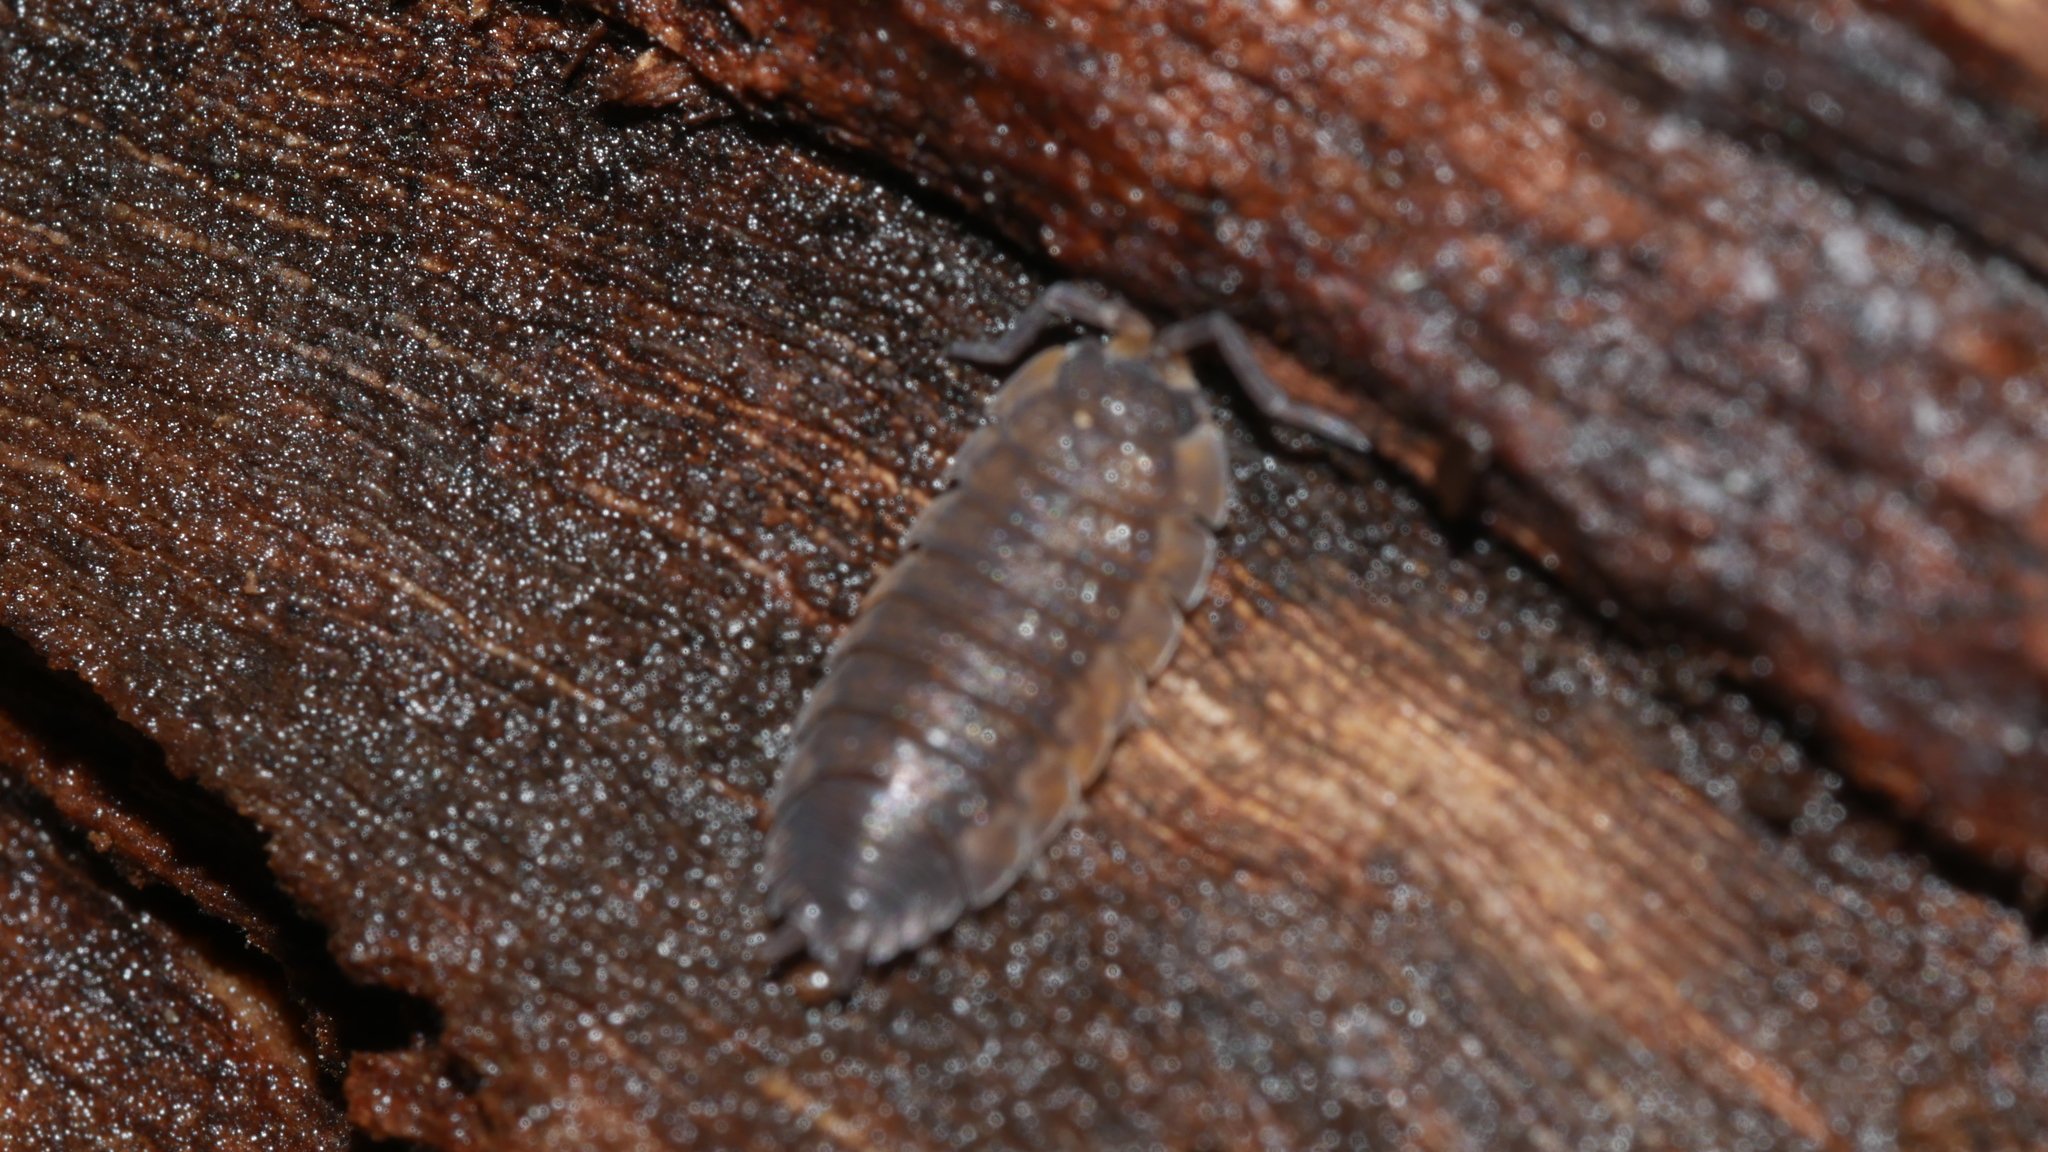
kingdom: Animalia
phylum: Arthropoda
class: Malacostraca
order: Isopoda
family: Porcellionidae
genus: Porcellio
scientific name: Porcellio scaber
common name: Common rough woodlouse
